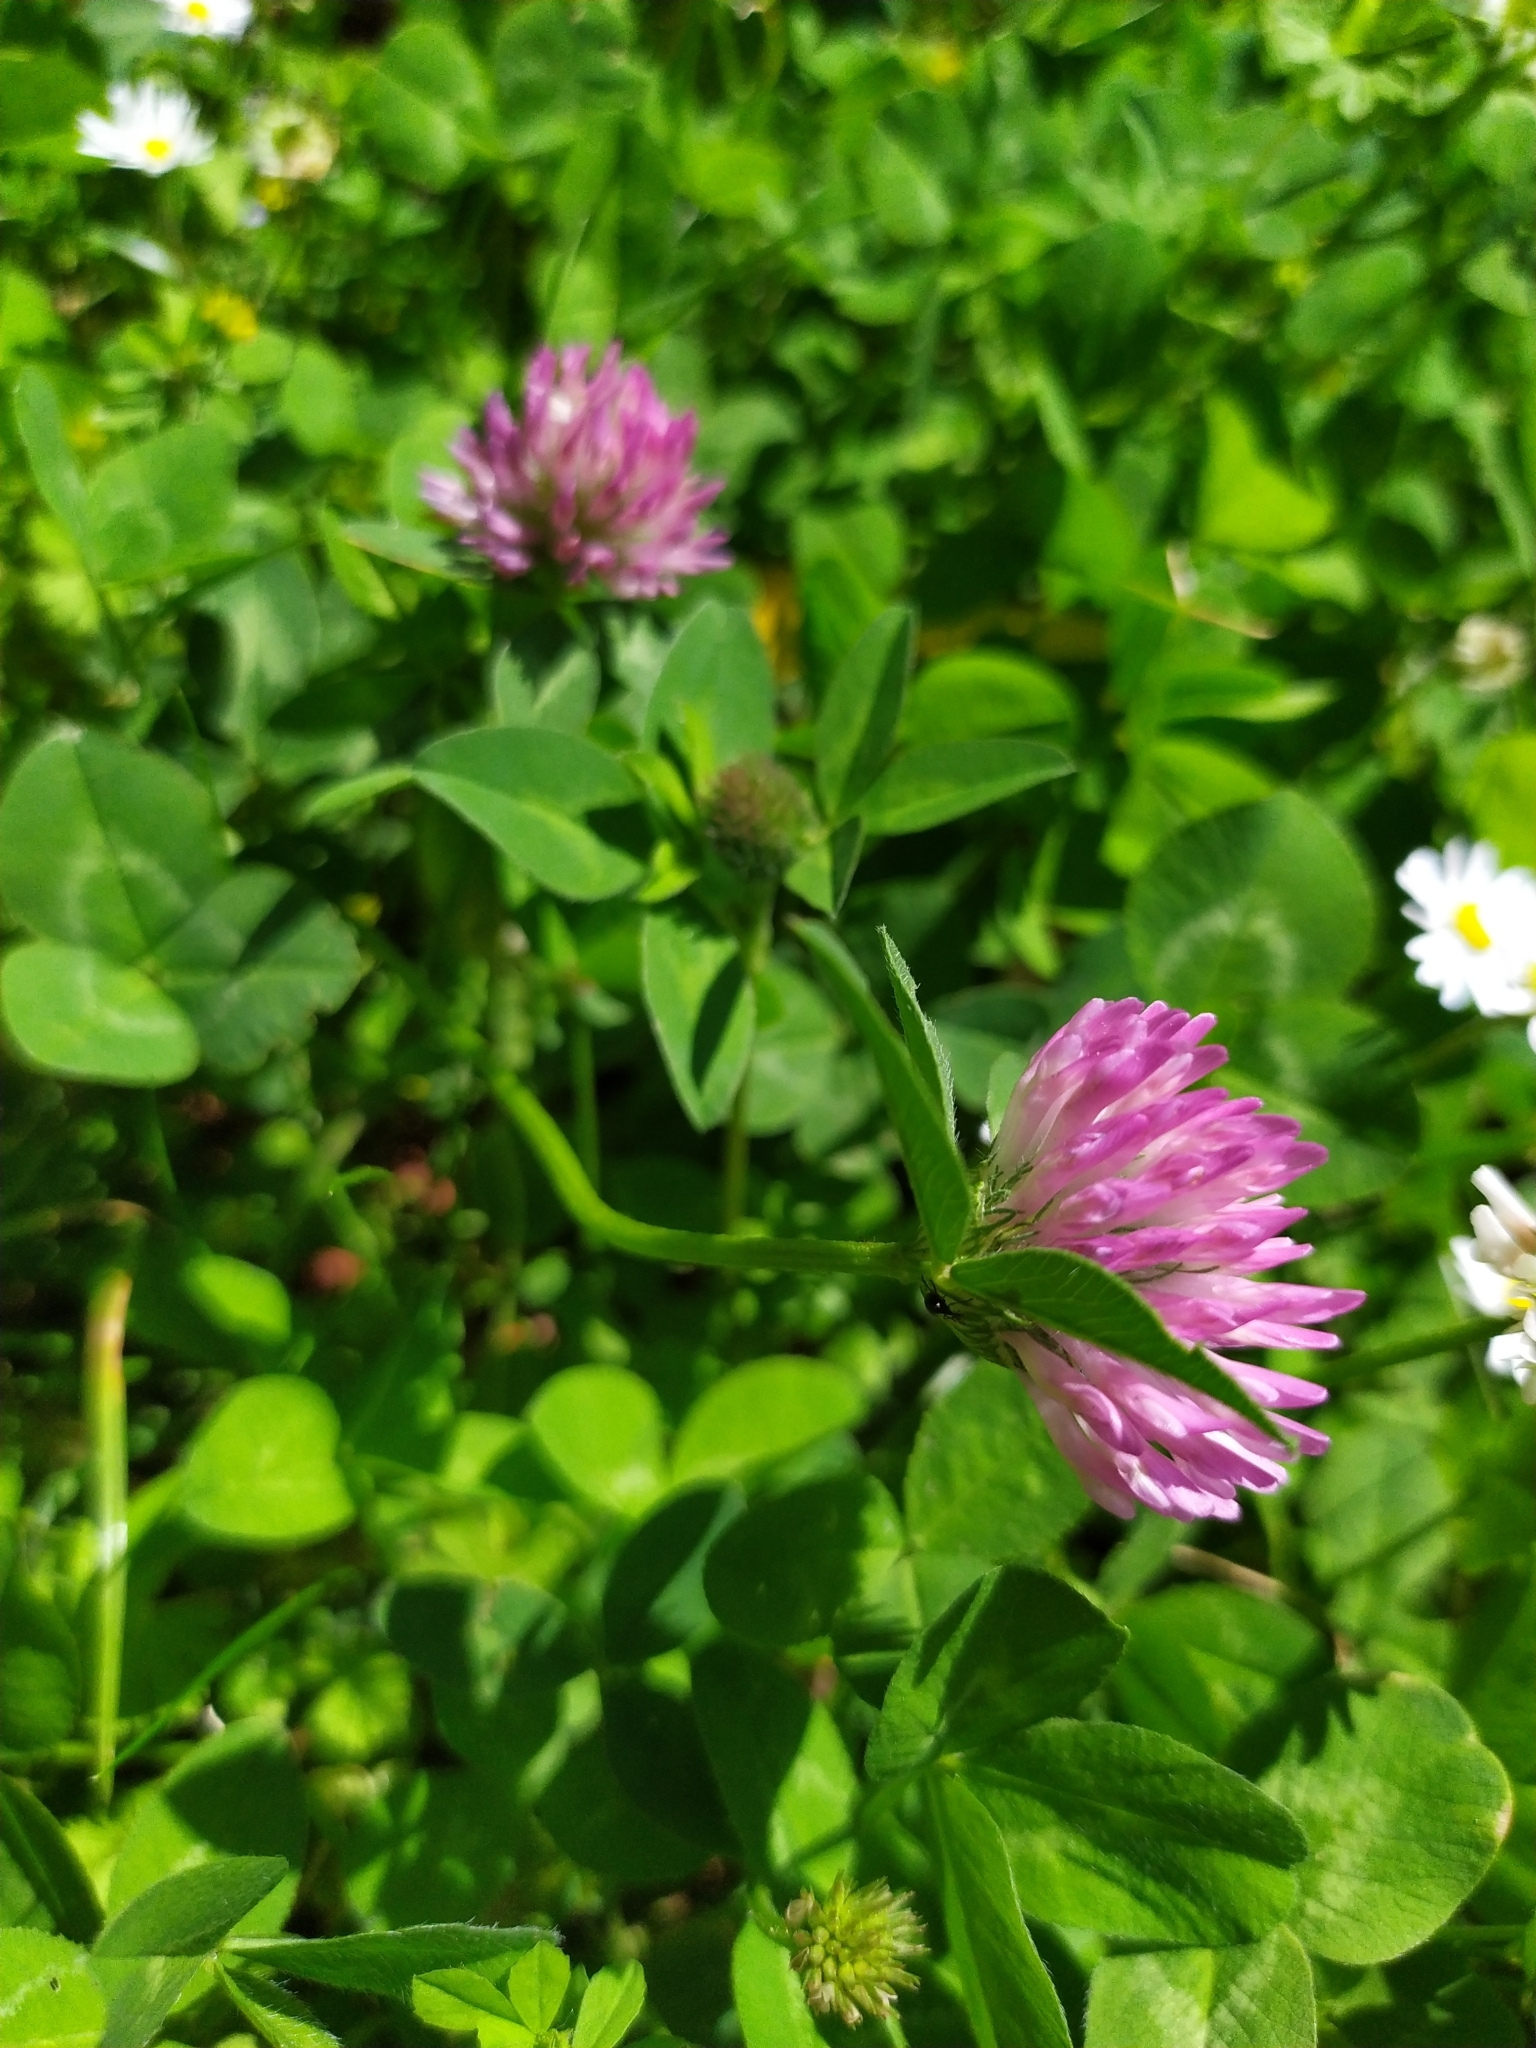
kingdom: Plantae
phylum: Tracheophyta
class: Magnoliopsida
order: Fabales
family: Fabaceae
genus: Trifolium
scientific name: Trifolium pratense
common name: Red clover
